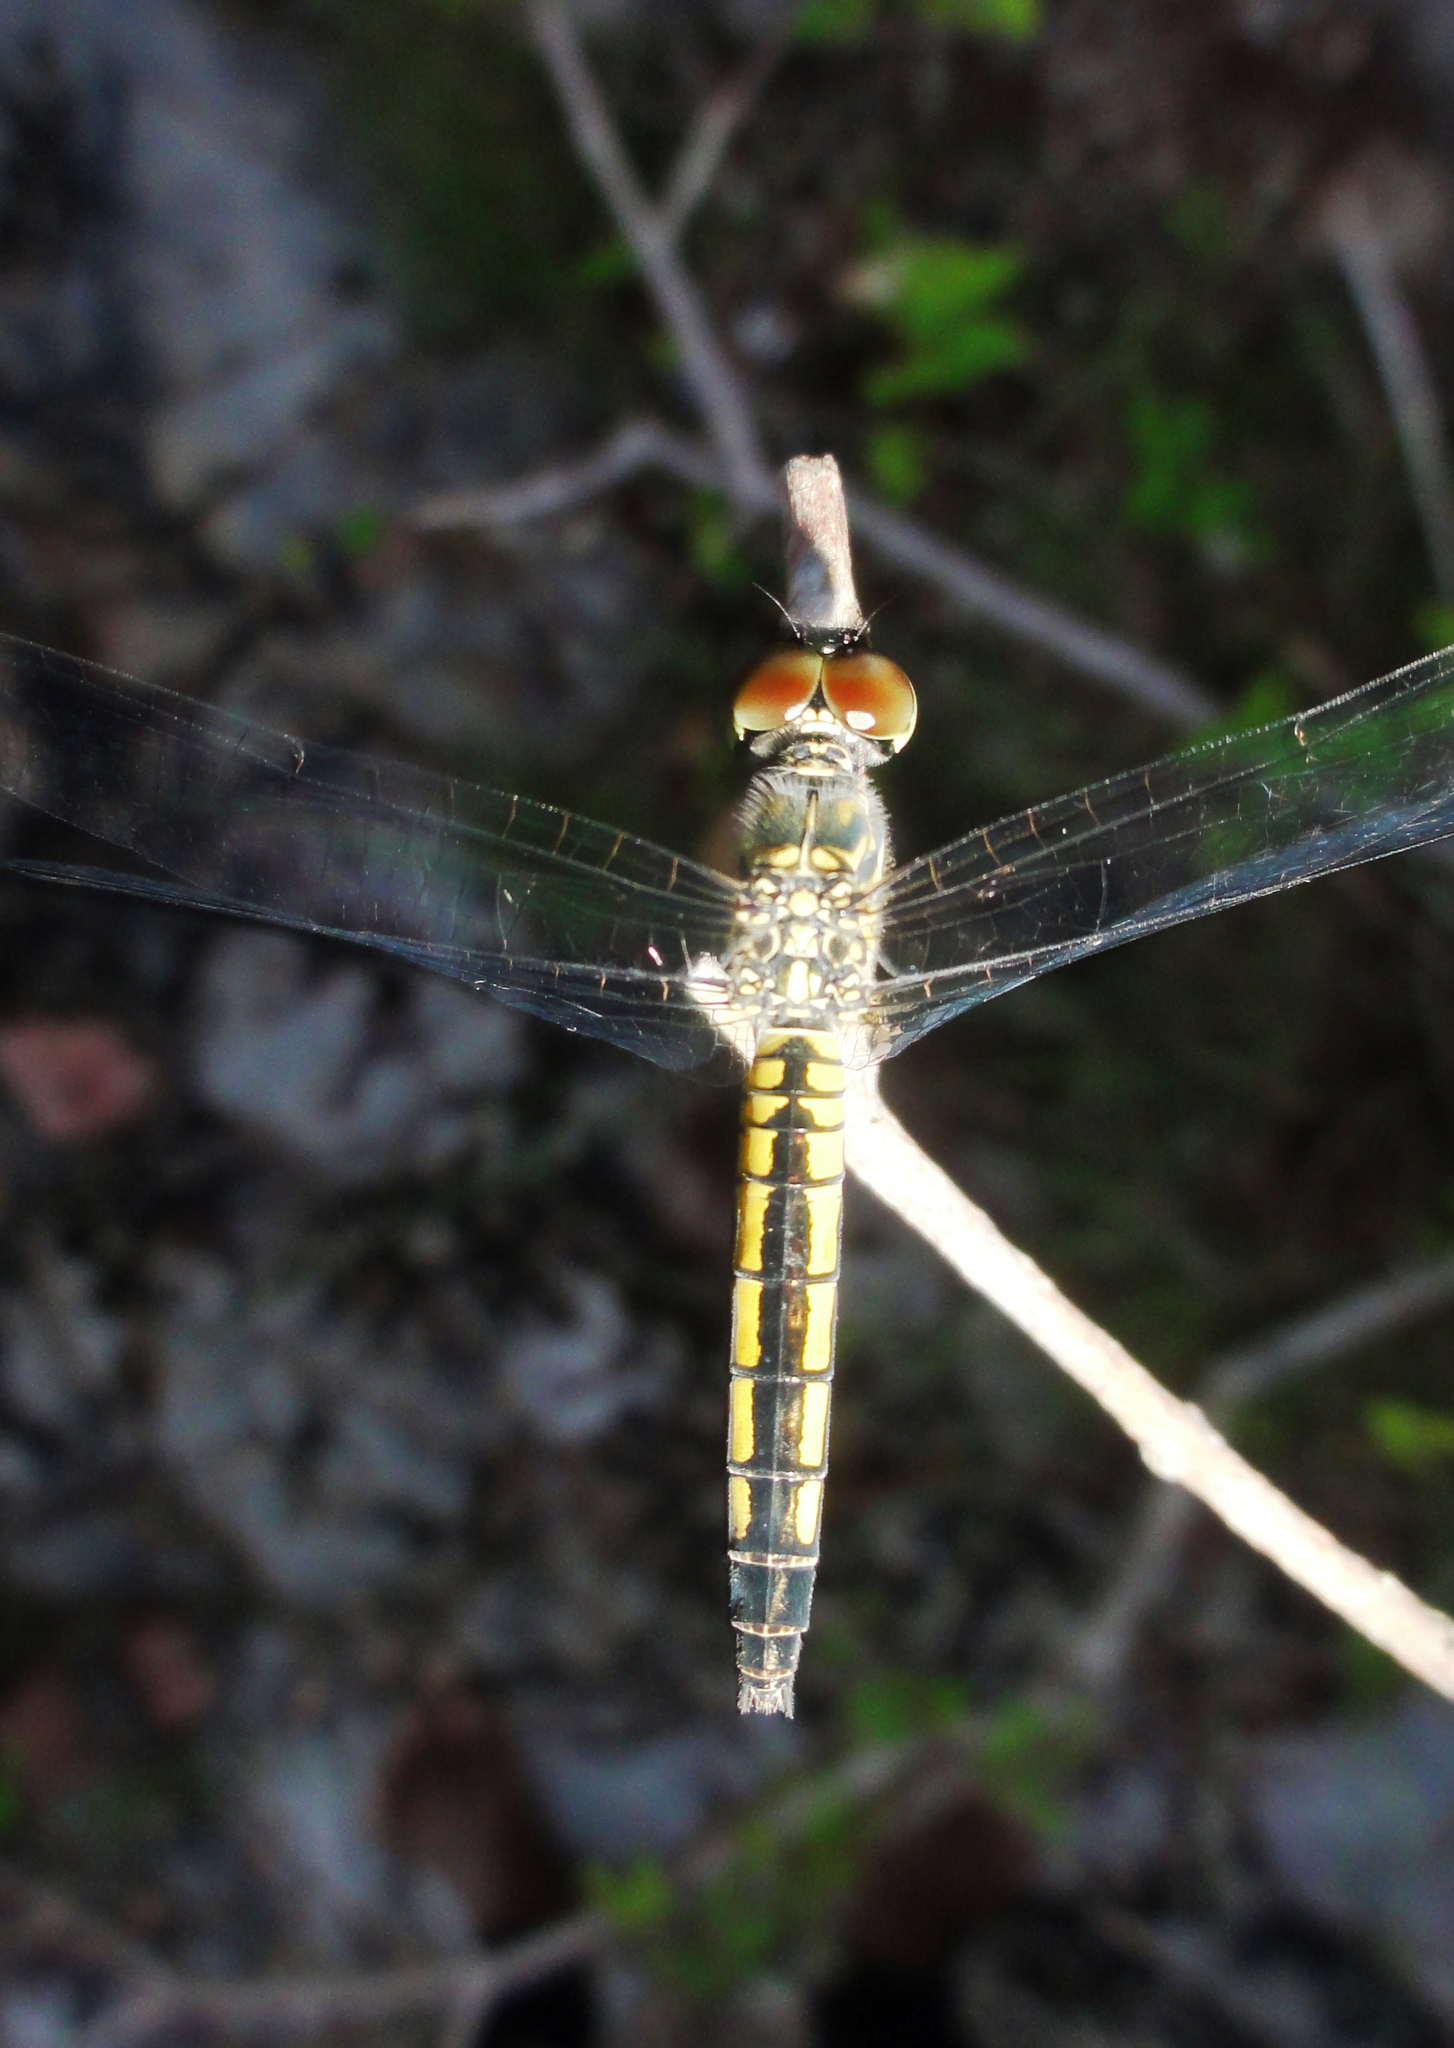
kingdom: Animalia
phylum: Arthropoda
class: Insecta
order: Odonata
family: Libellulidae
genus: Brachydiplax
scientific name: Brachydiplax sobrina
